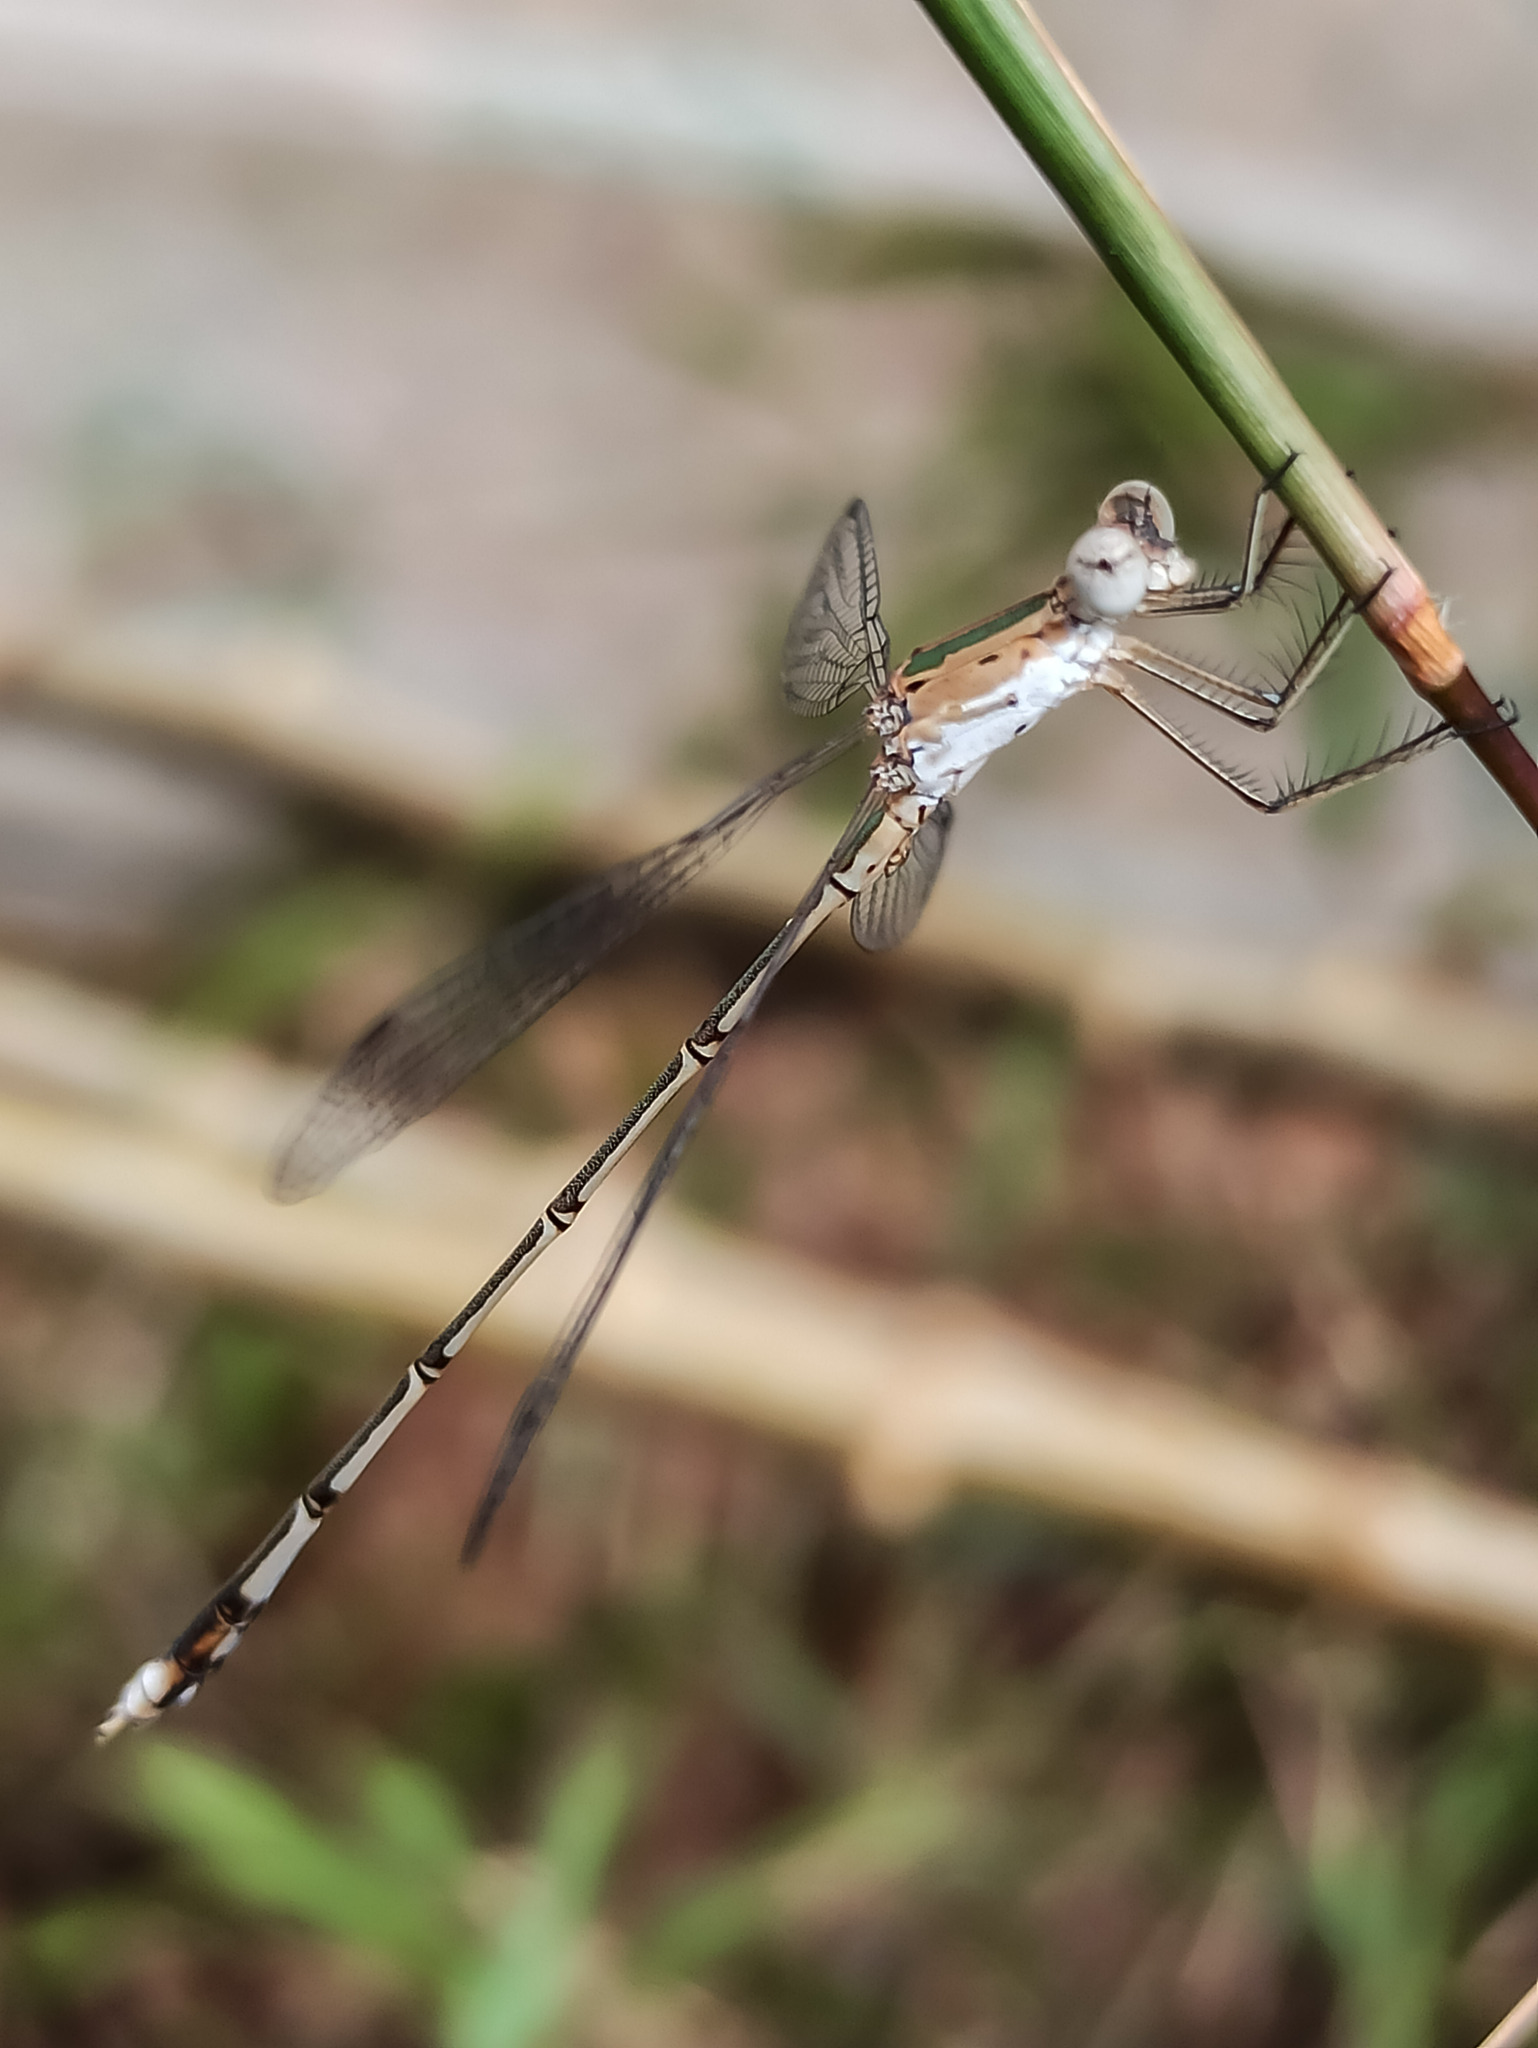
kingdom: Animalia
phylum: Arthropoda
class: Insecta
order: Odonata
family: Lestidae
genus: Lestes
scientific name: Lestes elatus
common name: Emerald spreadwing
